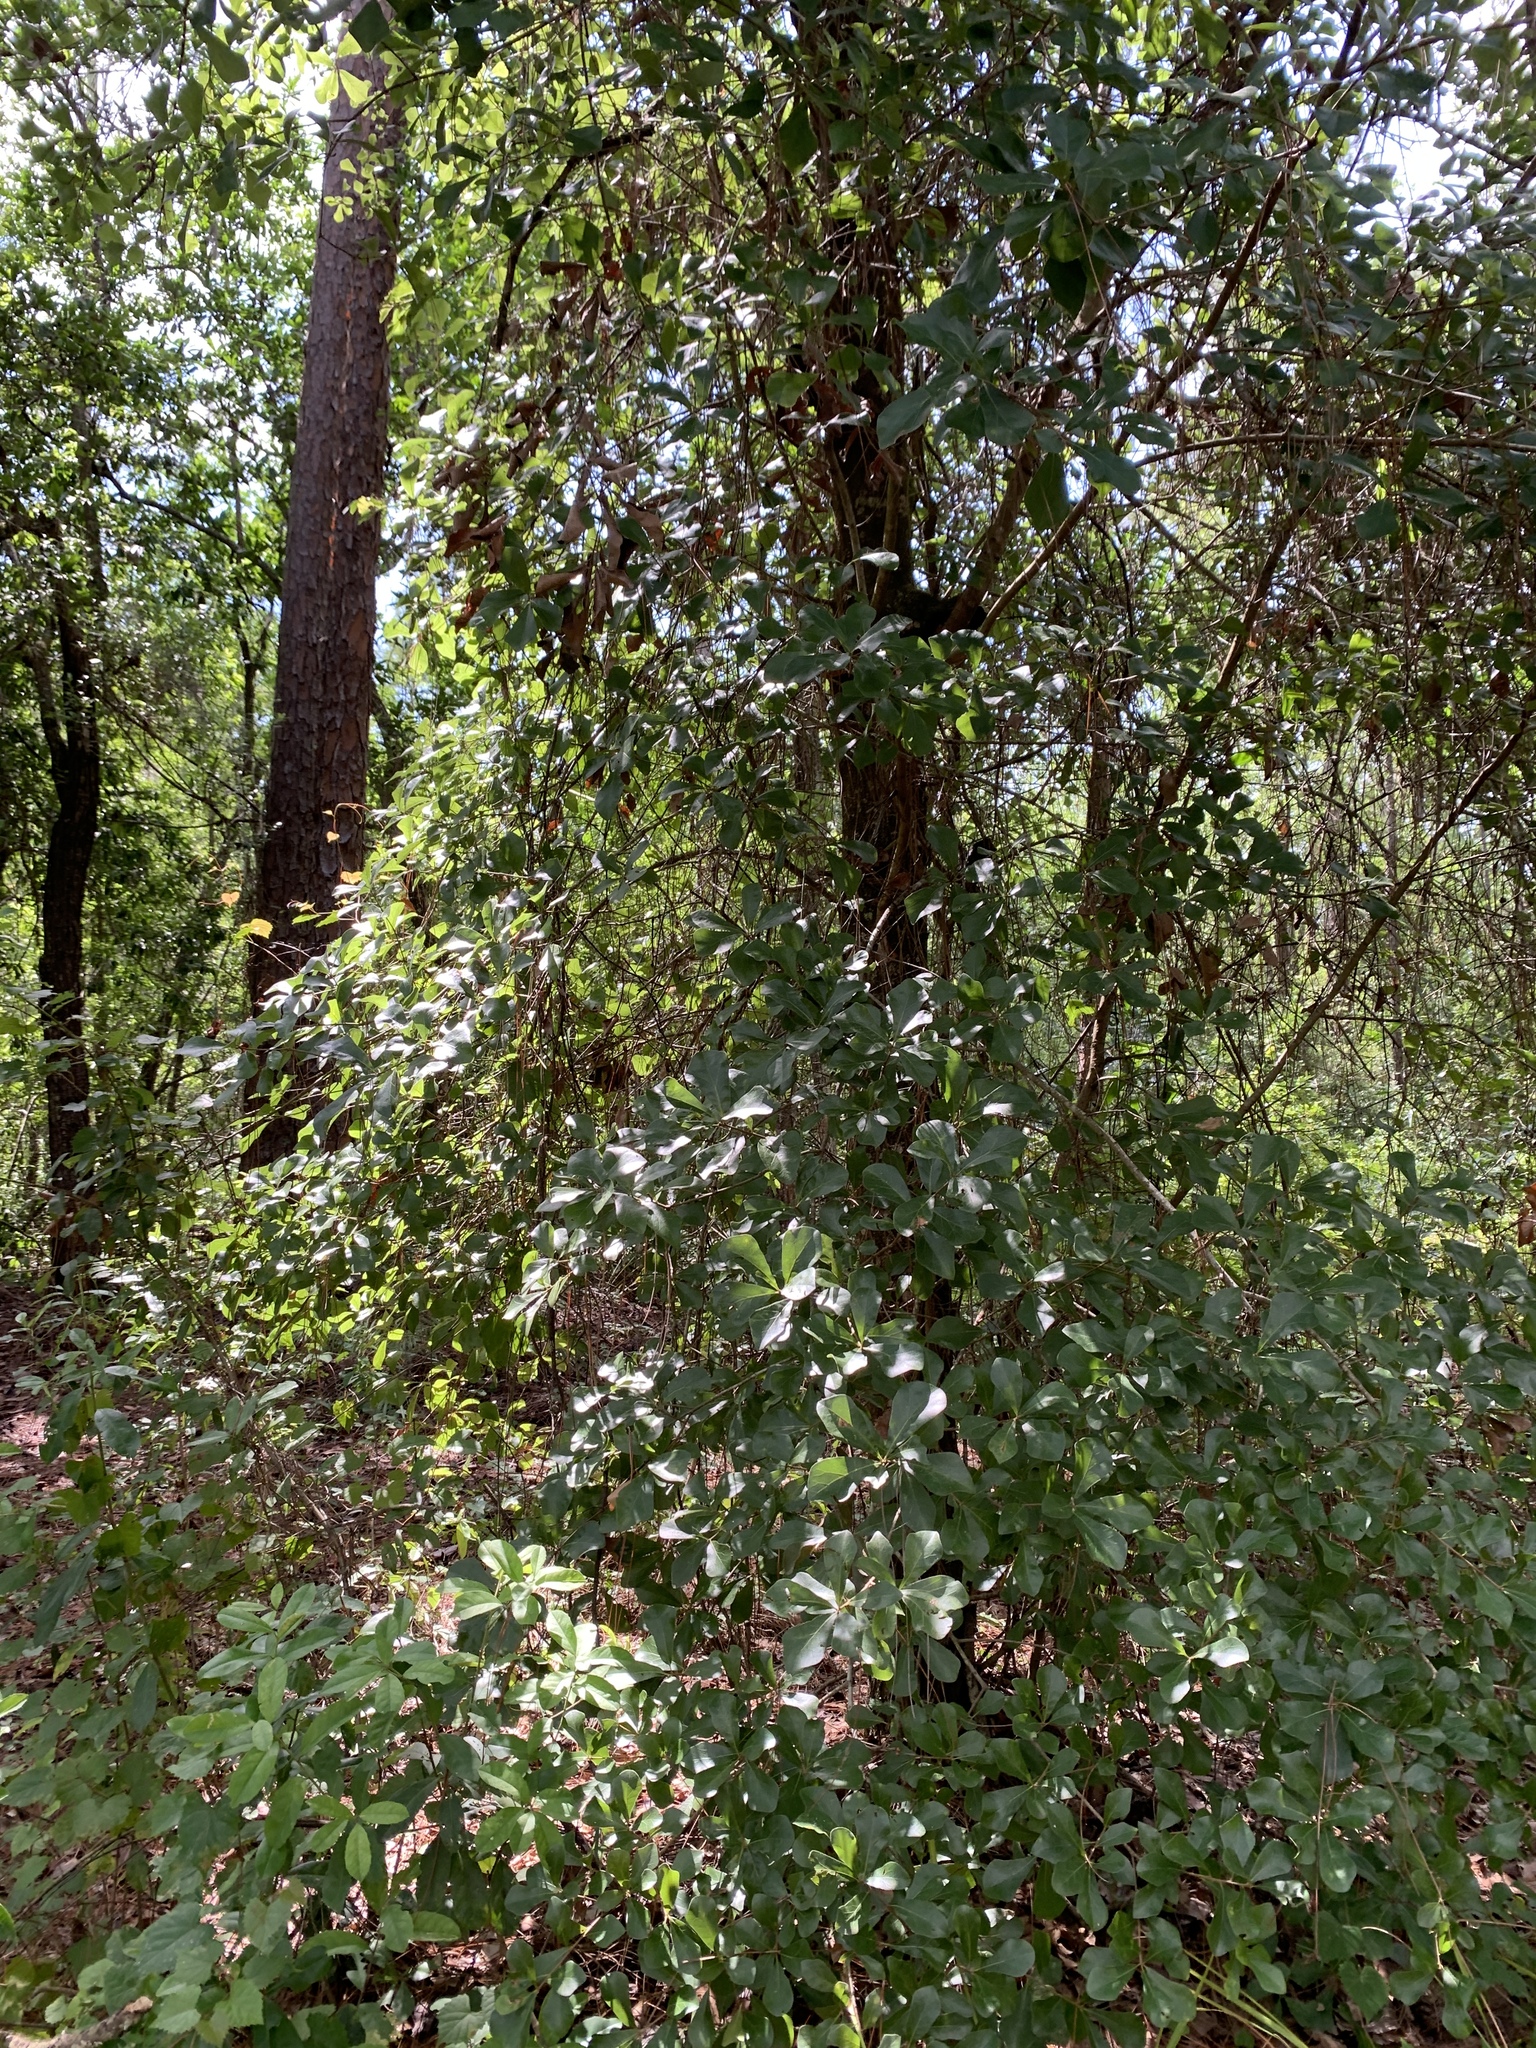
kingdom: Plantae
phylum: Tracheophyta
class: Magnoliopsida
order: Fagales
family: Fagaceae
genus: Quercus
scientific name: Quercus nigra
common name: Water oak
